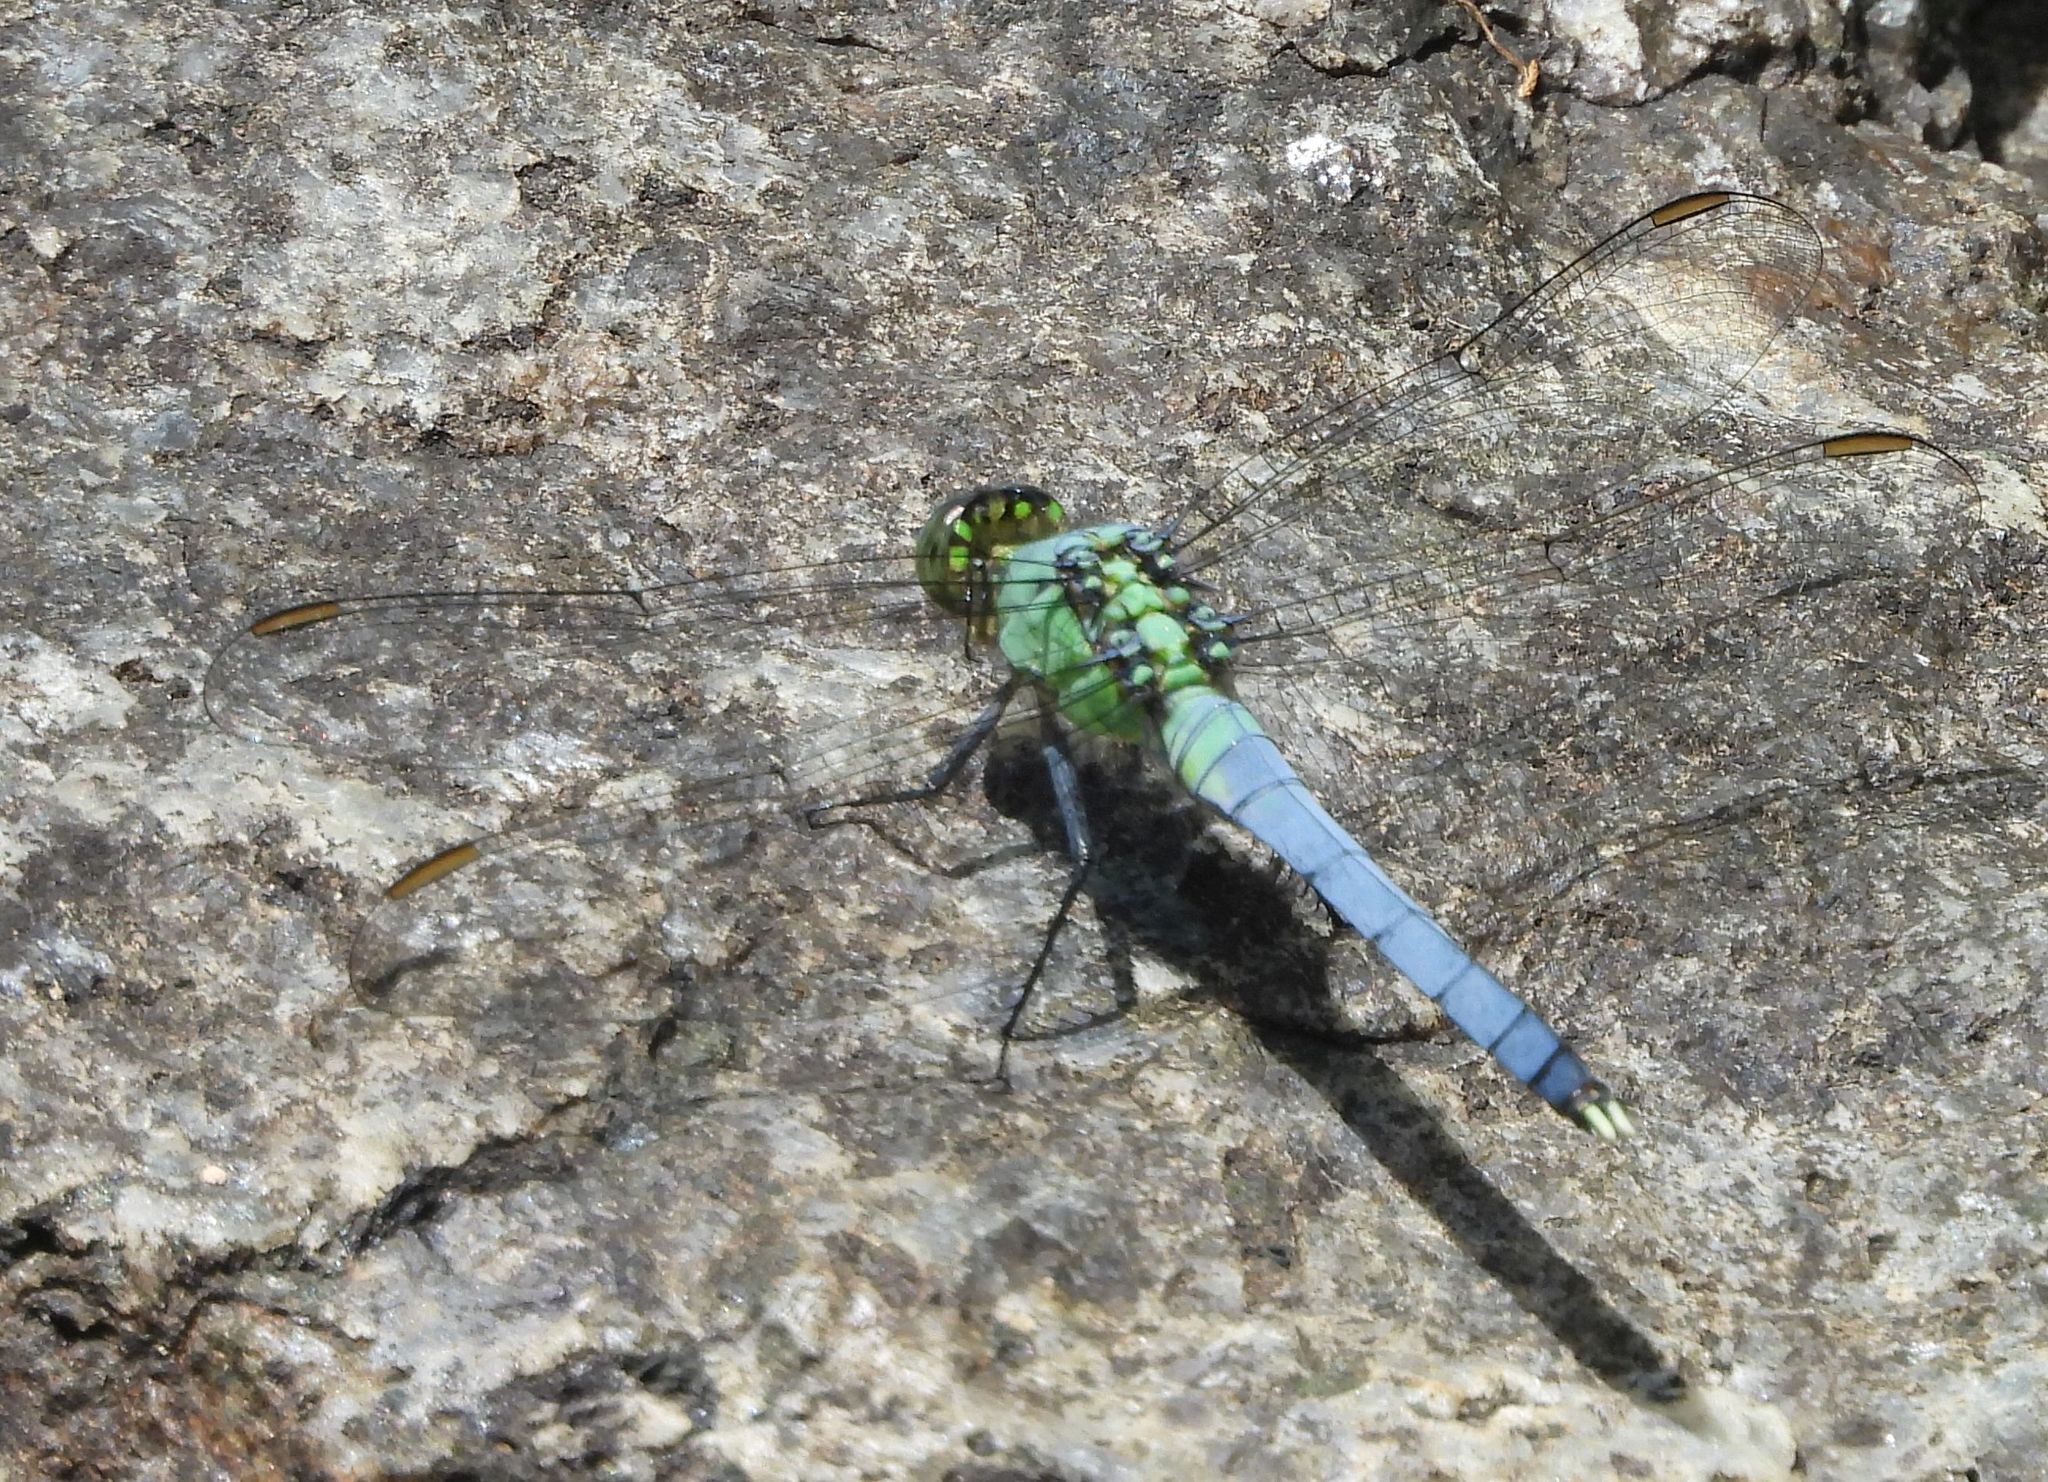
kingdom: Animalia
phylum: Arthropoda
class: Insecta
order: Odonata
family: Libellulidae
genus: Erythemis
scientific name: Erythemis simplicicollis
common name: Eastern pondhawk
